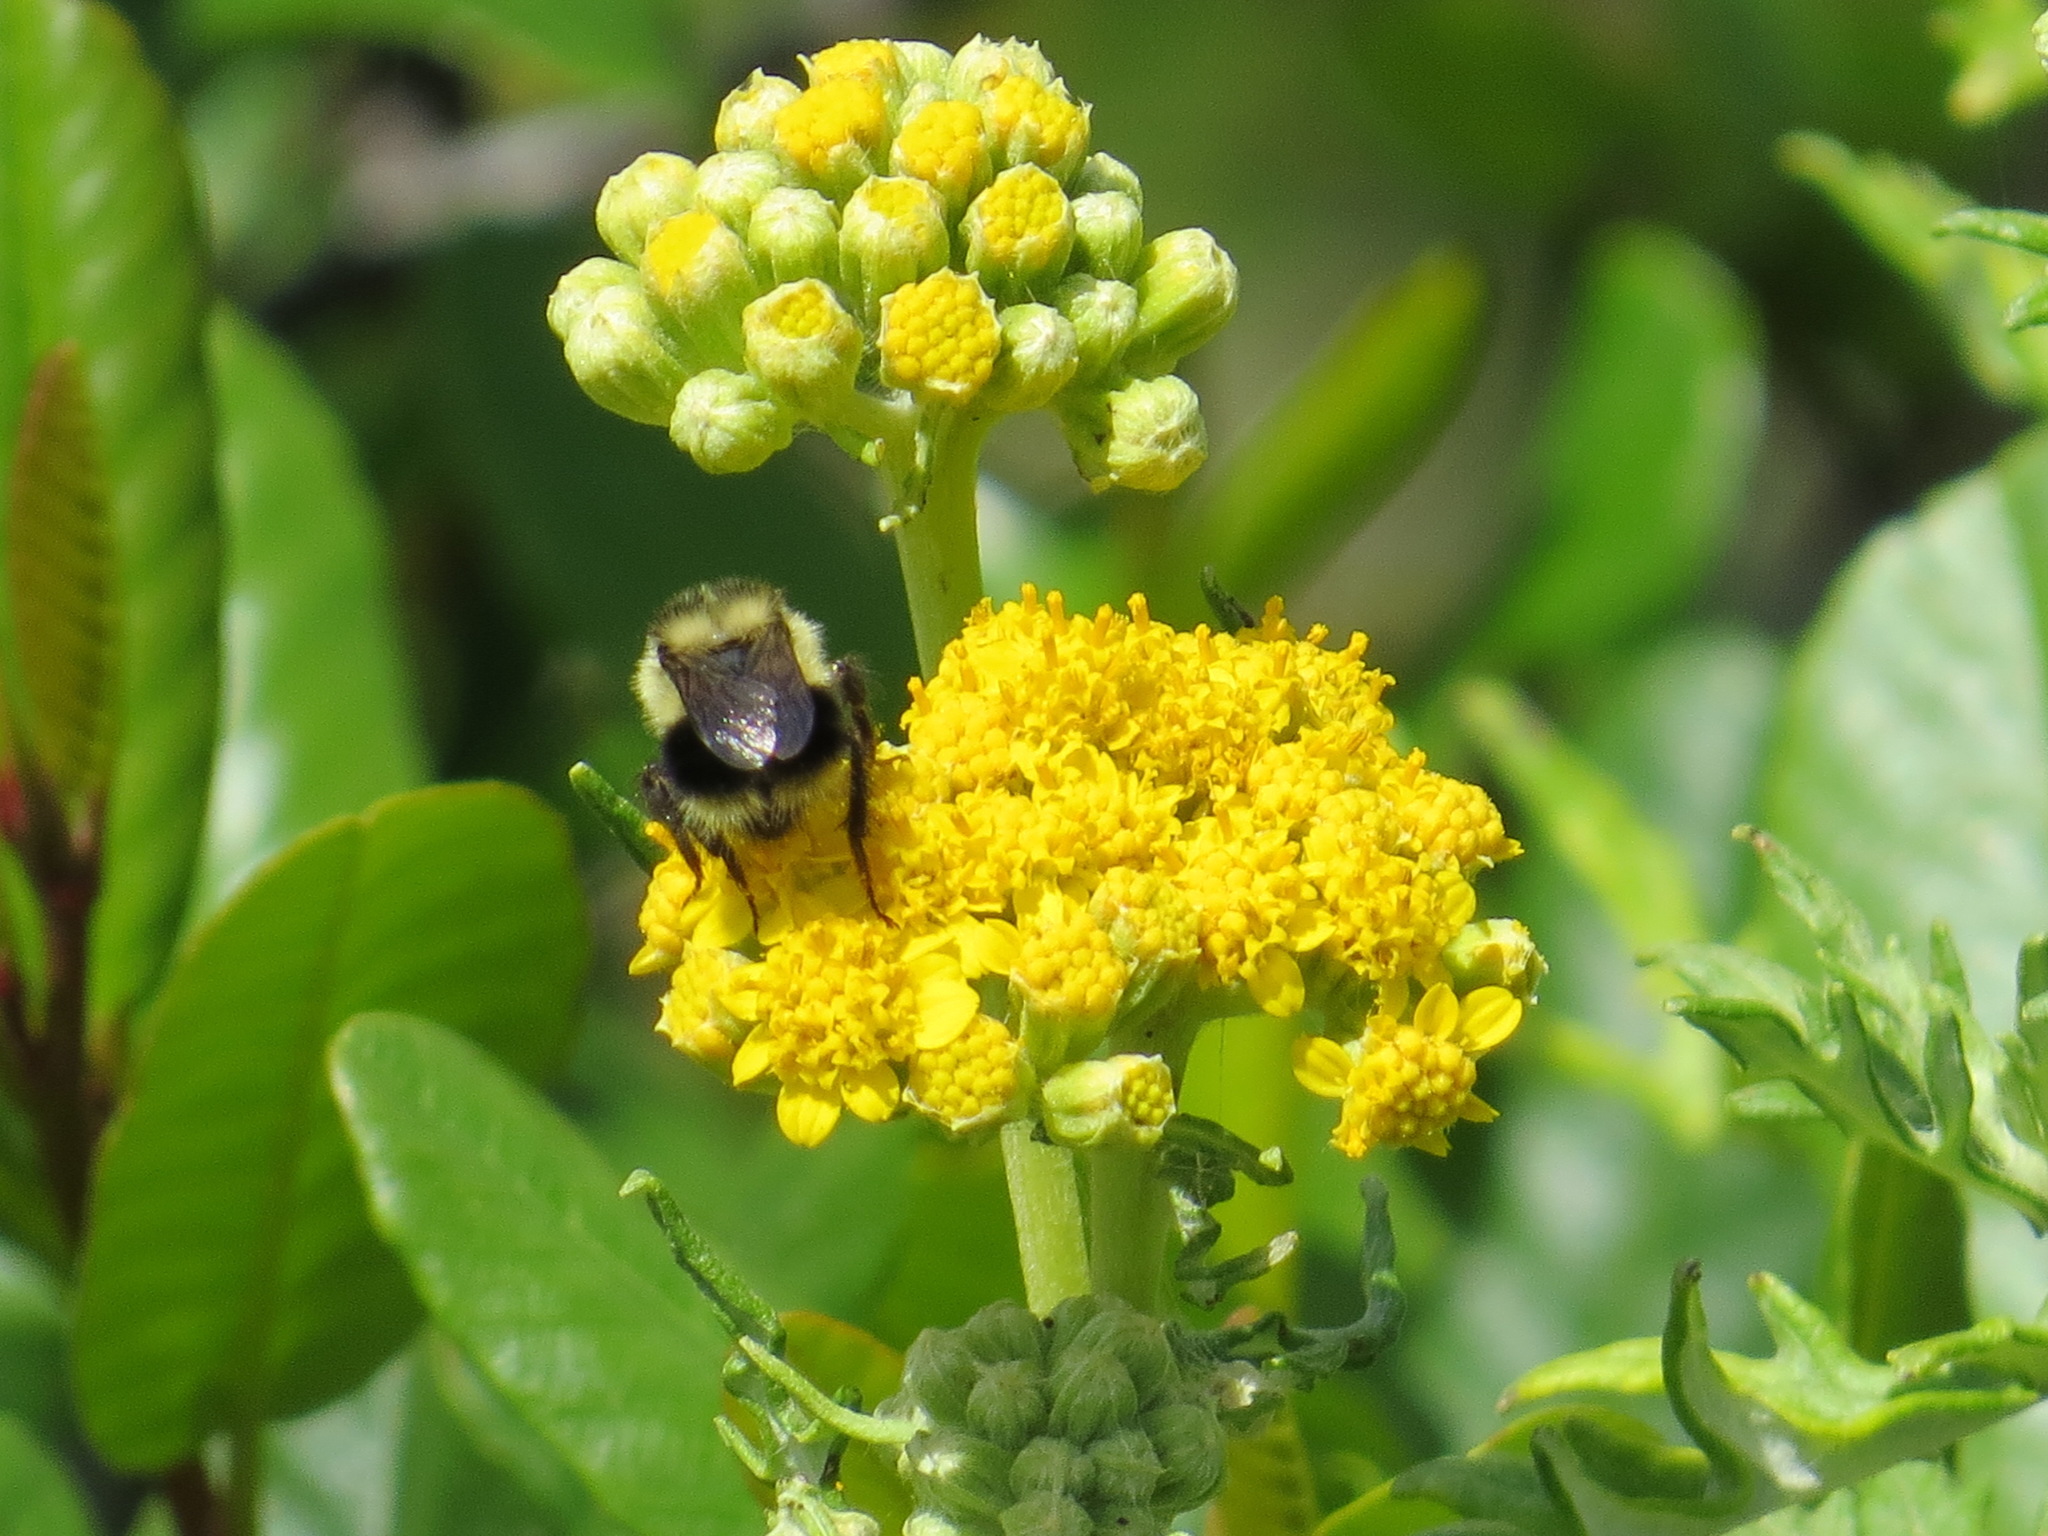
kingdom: Animalia
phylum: Arthropoda
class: Insecta
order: Hymenoptera
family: Apidae
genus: Bombus
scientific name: Bombus melanopygus
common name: Black tail bumble bee
